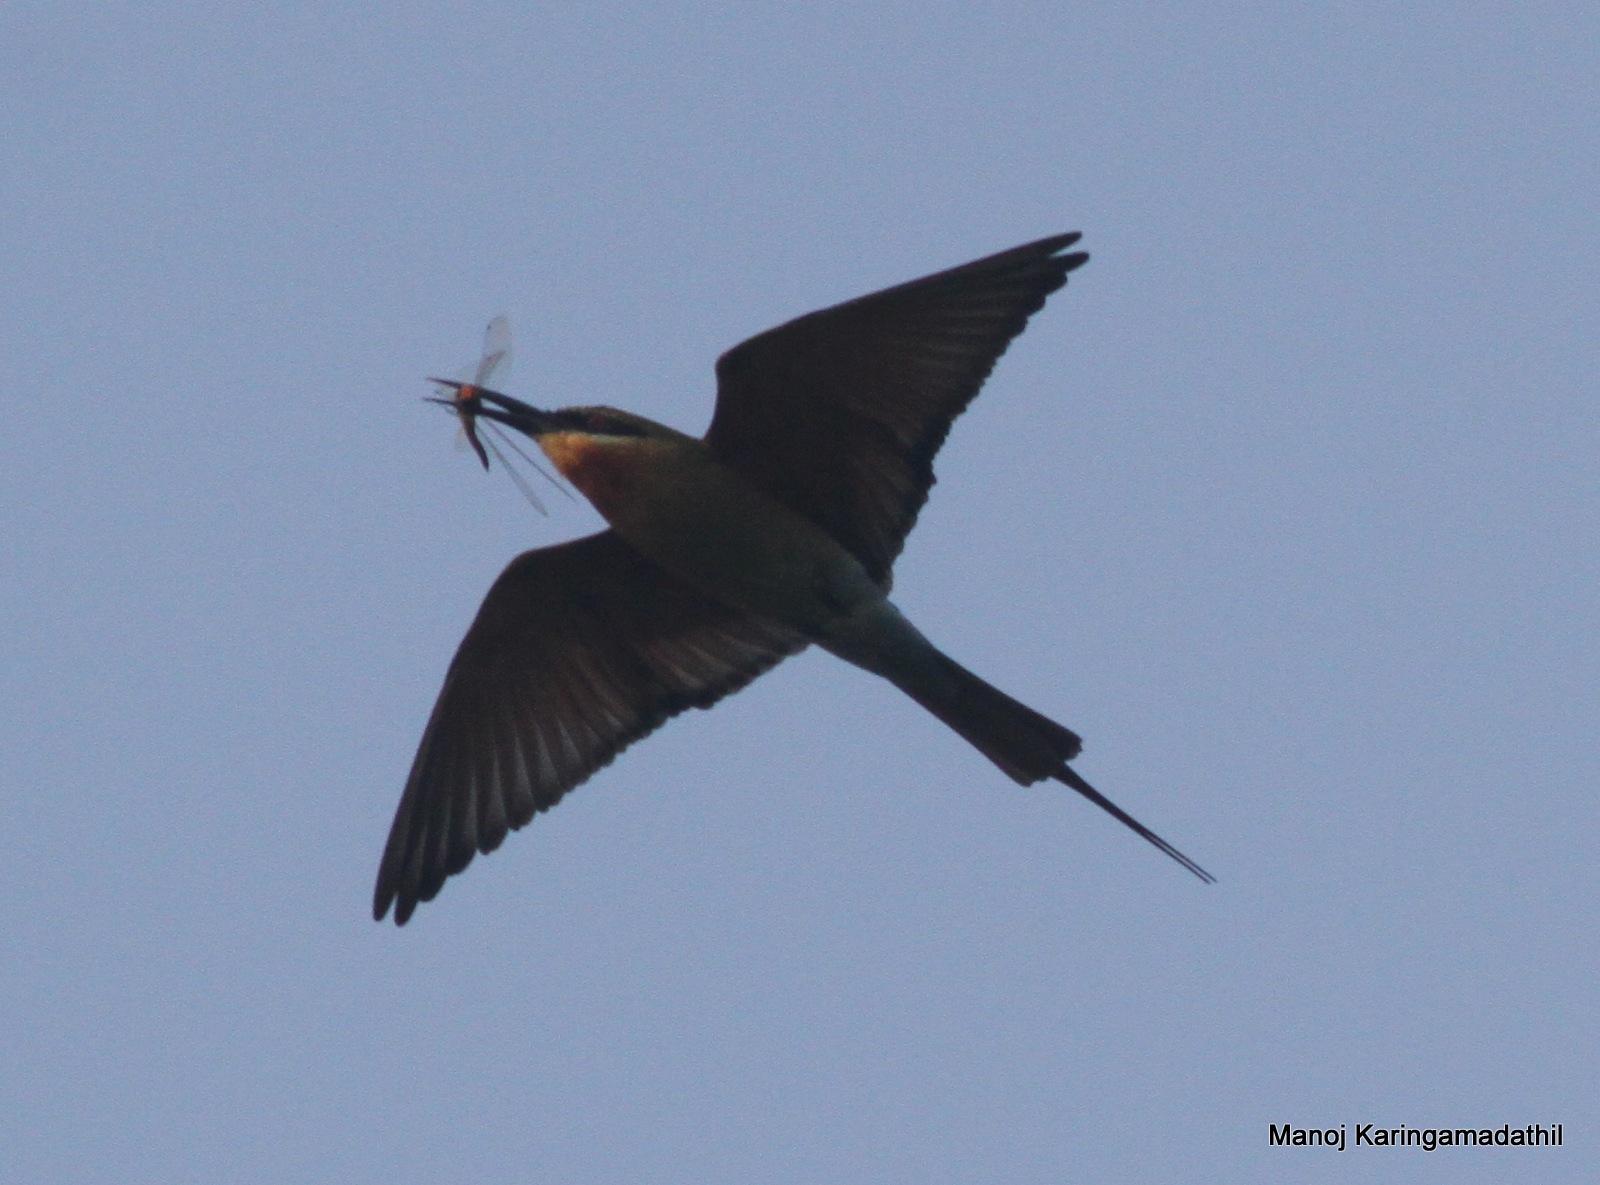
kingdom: Animalia
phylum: Chordata
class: Aves
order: Coraciiformes
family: Meropidae
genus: Merops
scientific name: Merops philippinus
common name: Blue-tailed bee-eater
